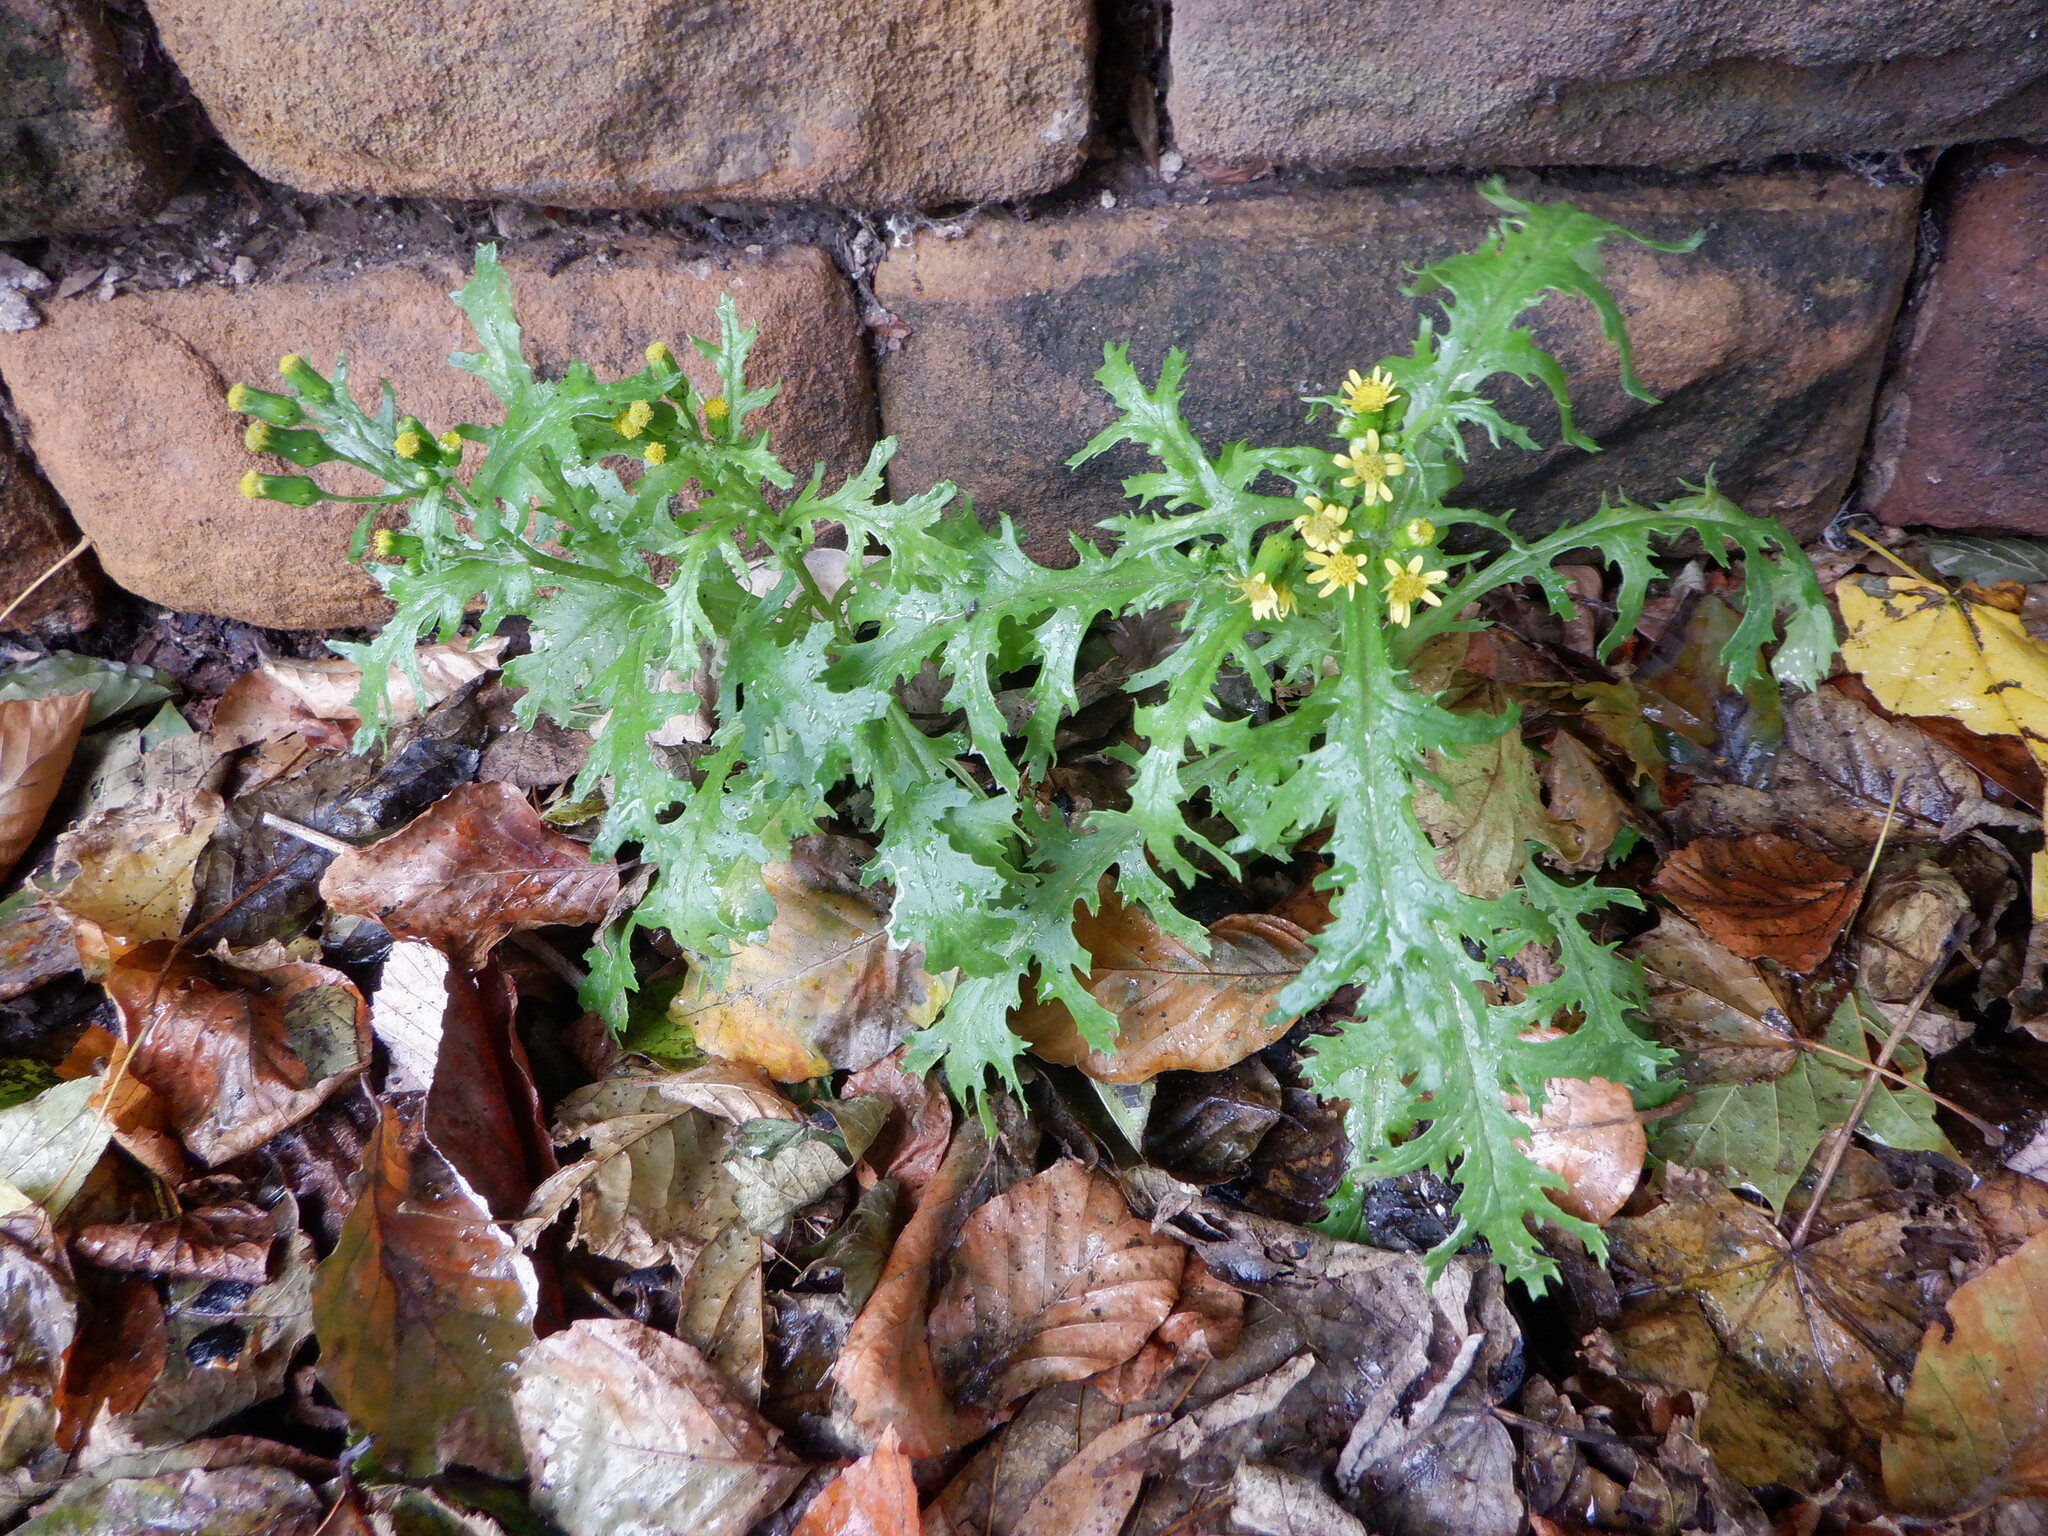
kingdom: Plantae
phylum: Tracheophyta
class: Magnoliopsida
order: Asterales
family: Asteraceae
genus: Senecio
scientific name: Senecio vulgaris
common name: Old-man-in-the-spring
